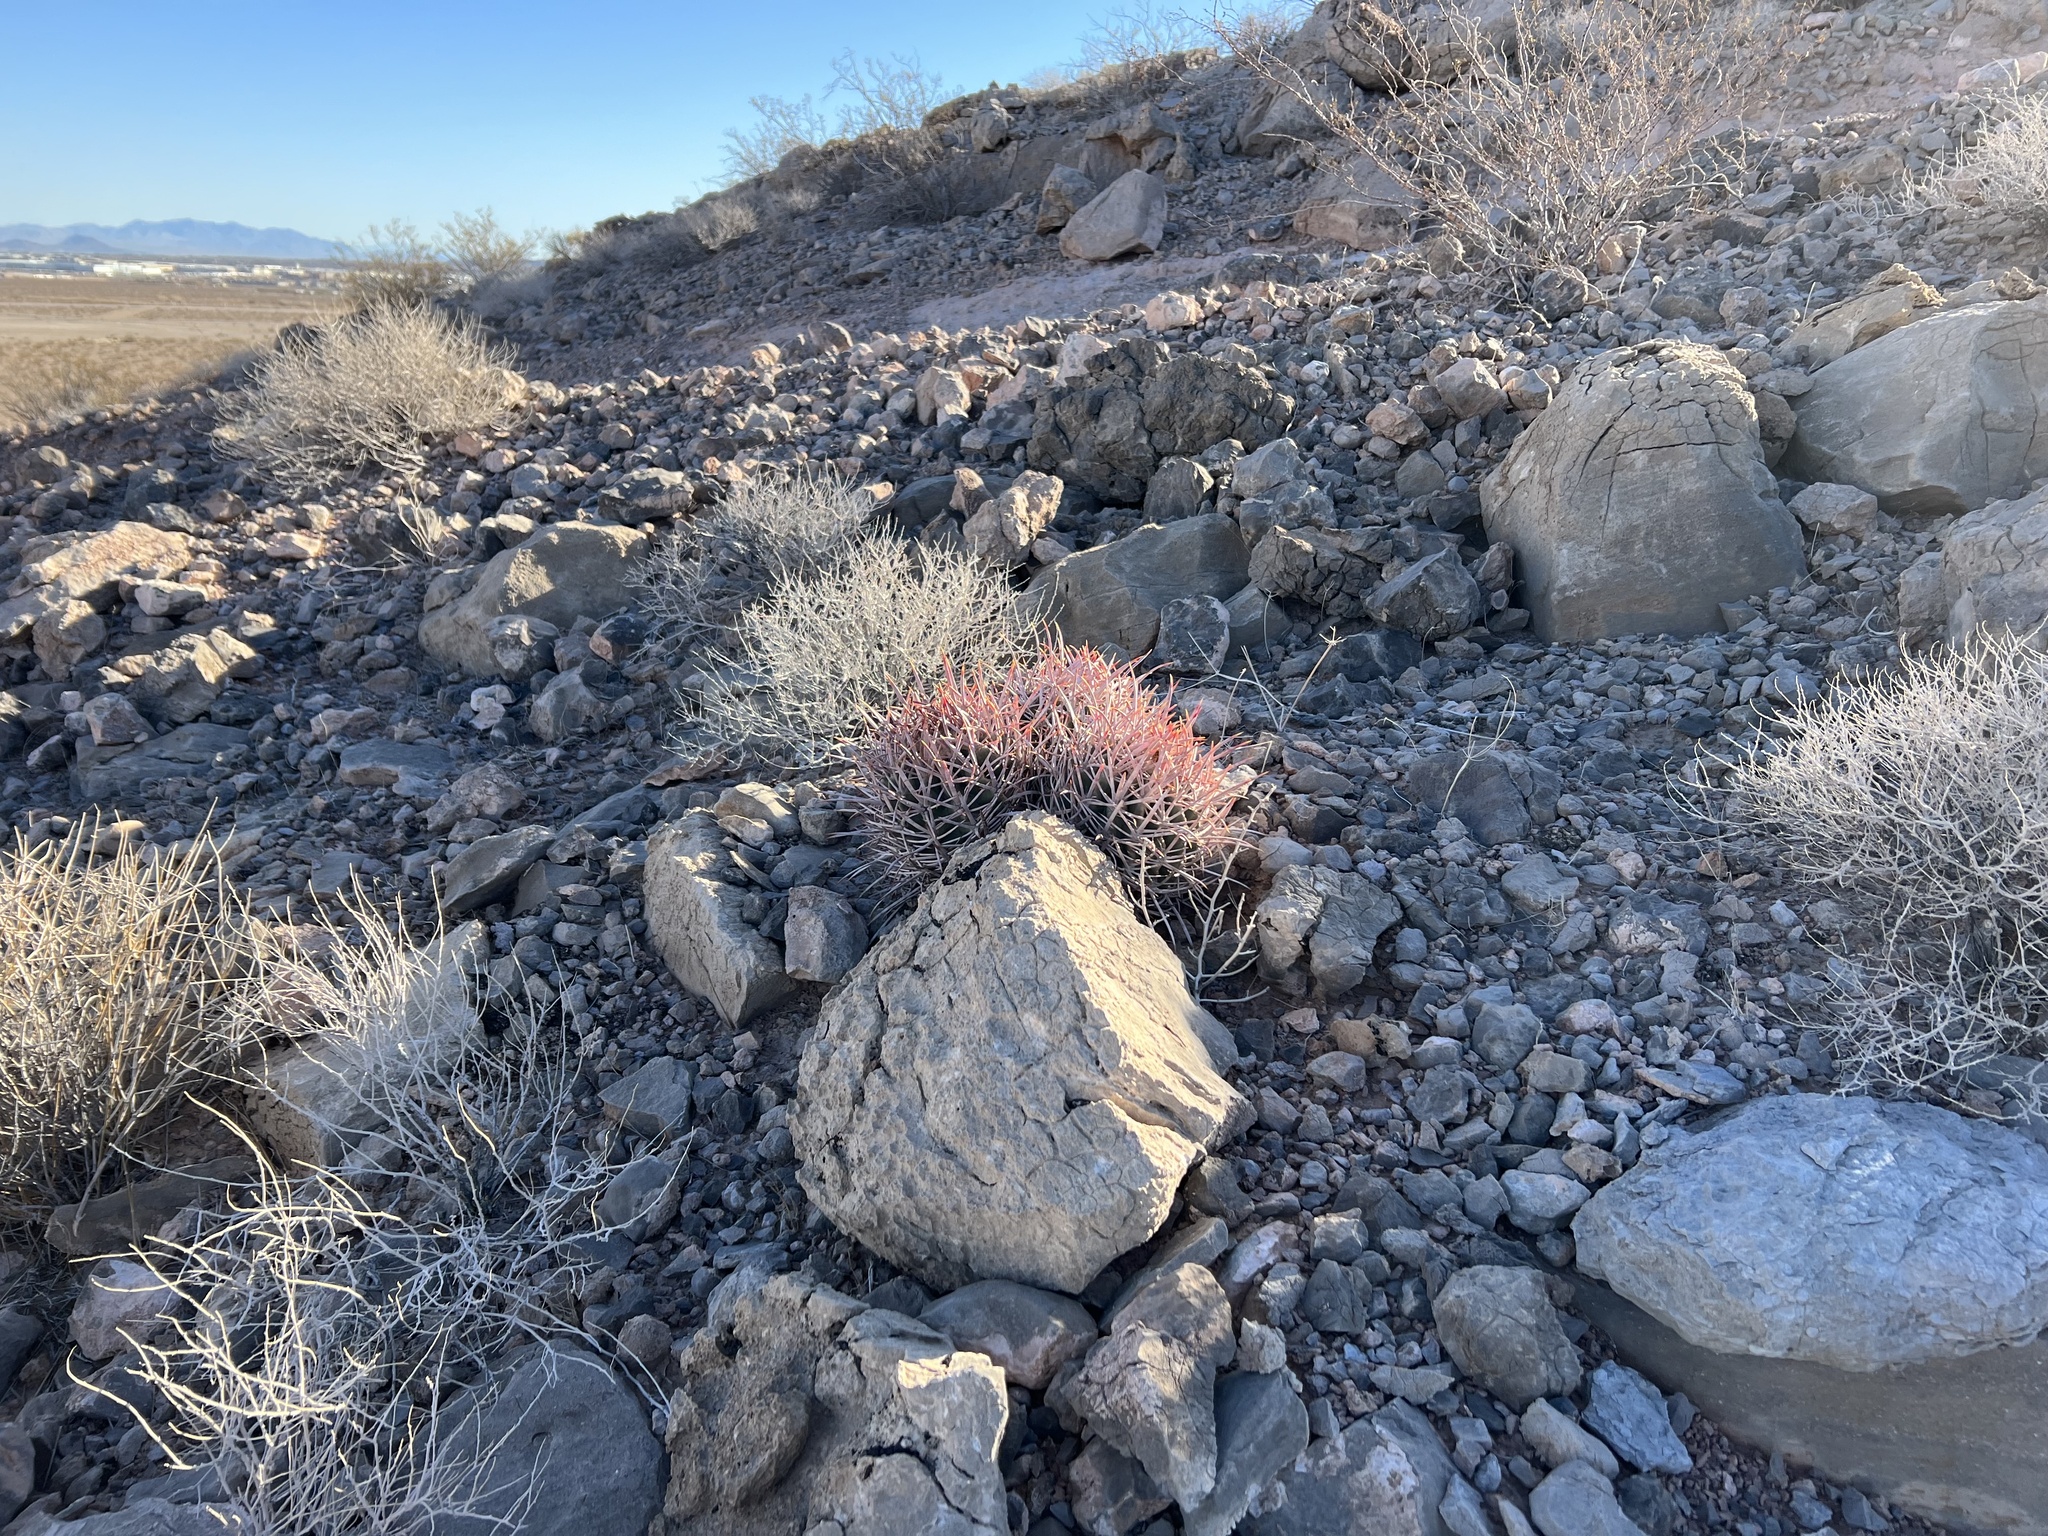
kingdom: Plantae
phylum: Tracheophyta
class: Magnoliopsida
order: Caryophyllales
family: Cactaceae
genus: Echinocactus
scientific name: Echinocactus polycephalus
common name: Cottontop cactus
